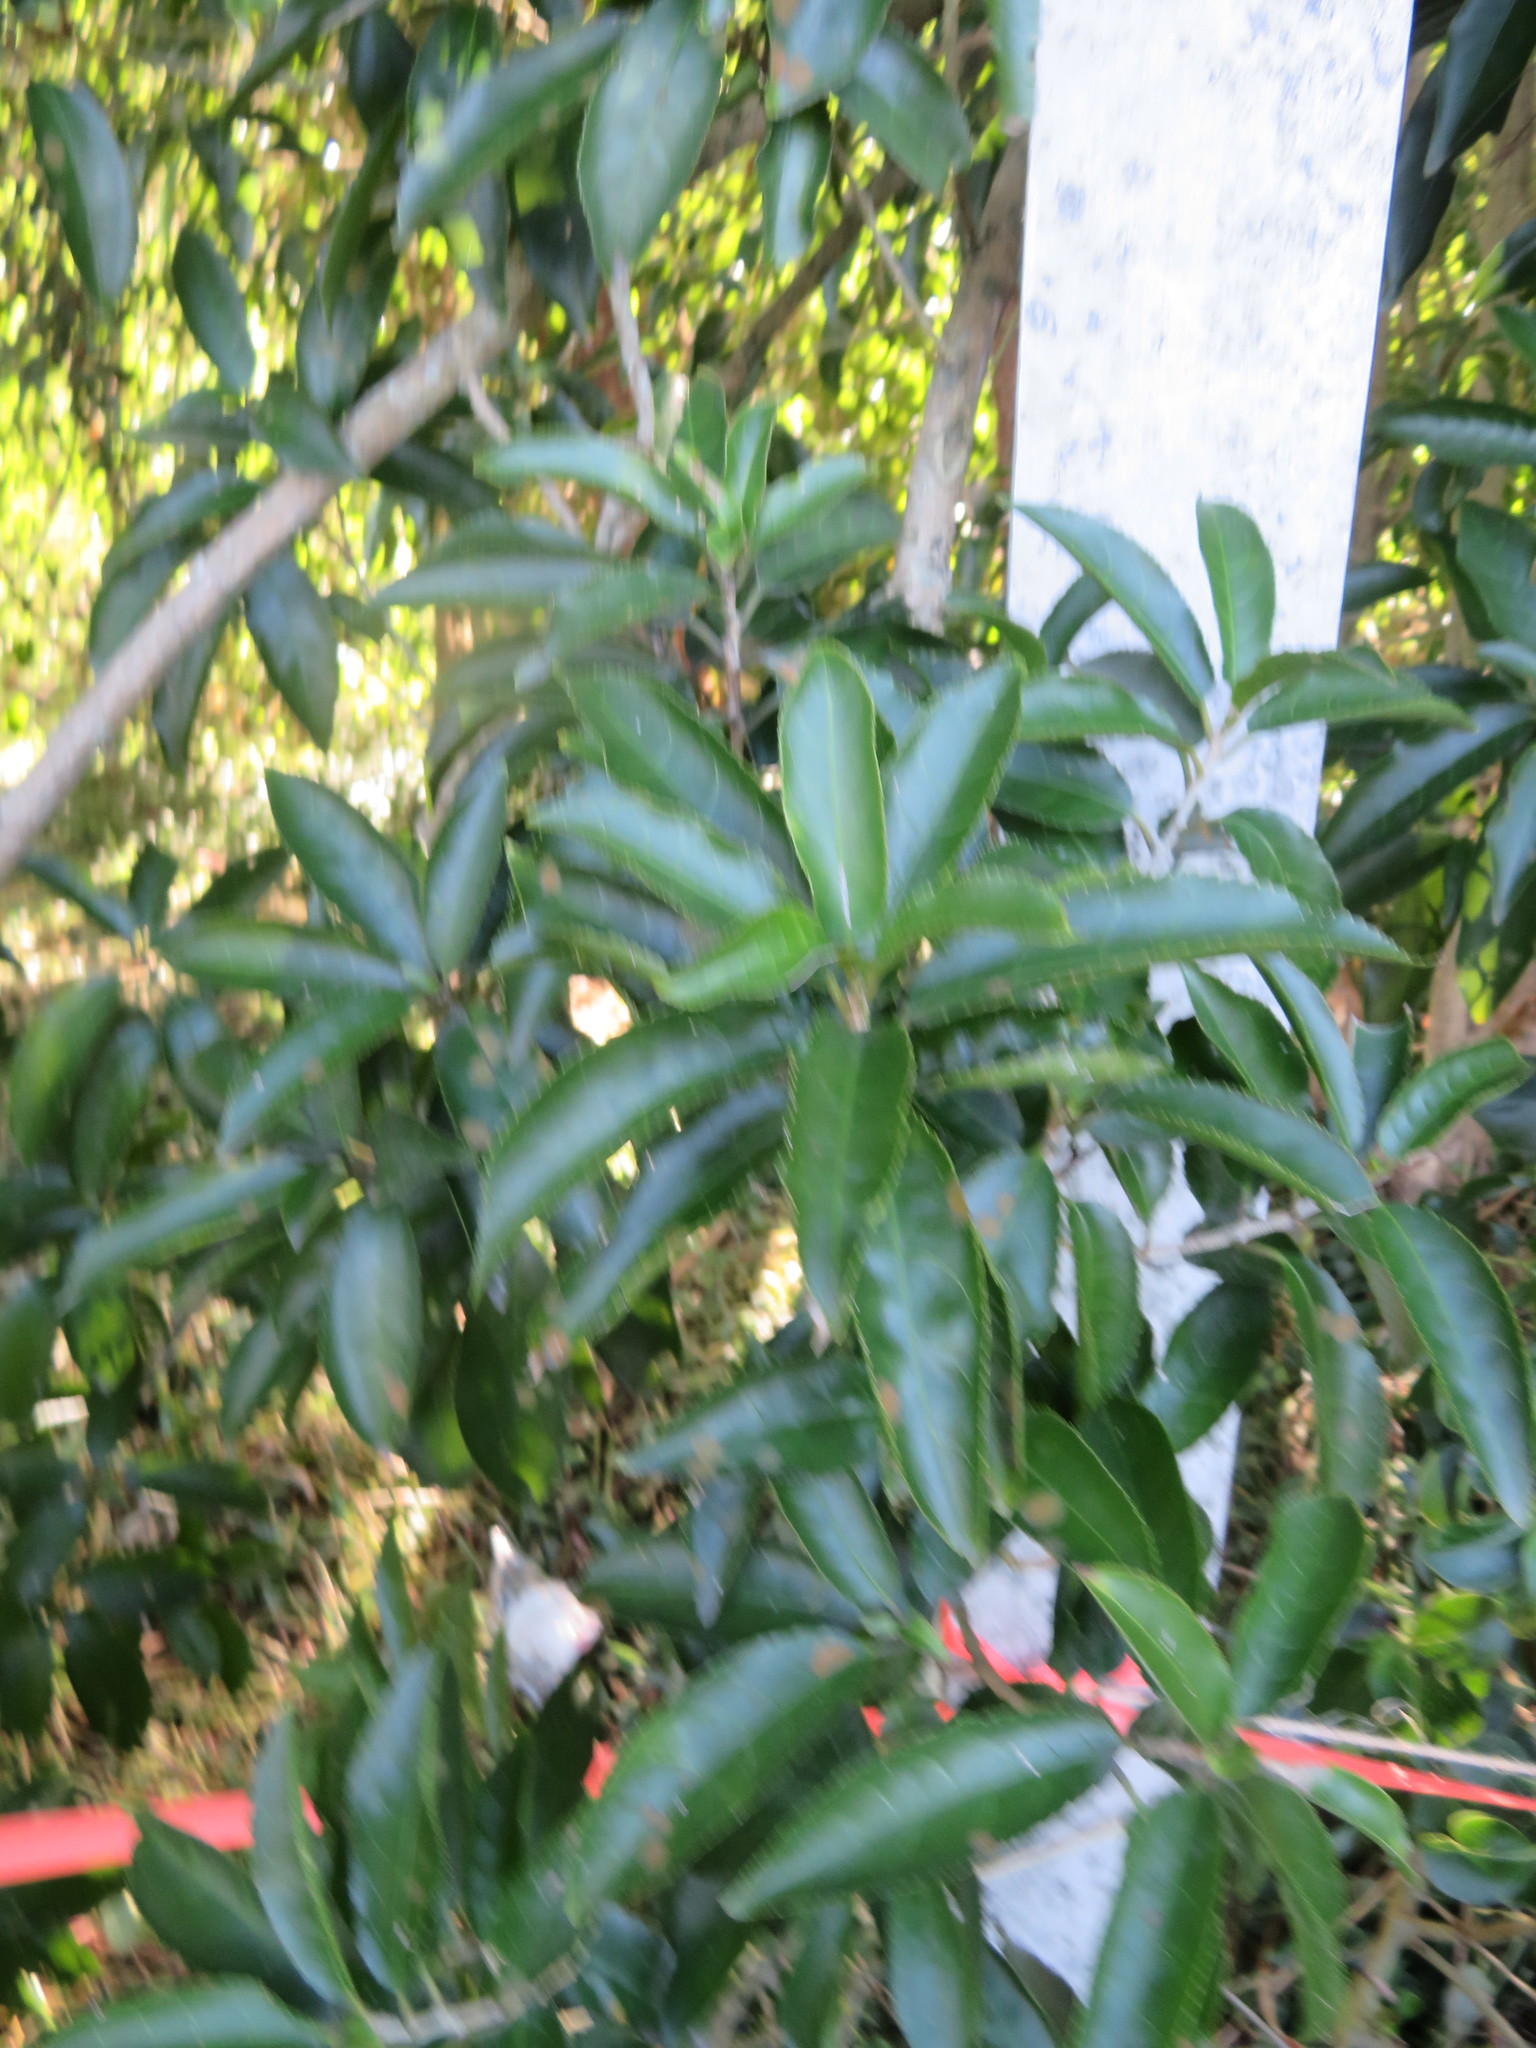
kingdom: Plantae
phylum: Tracheophyta
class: Magnoliopsida
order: Malpighiales
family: Violaceae
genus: Melicytus
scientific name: Melicytus ramiflorus
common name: Mahoe
